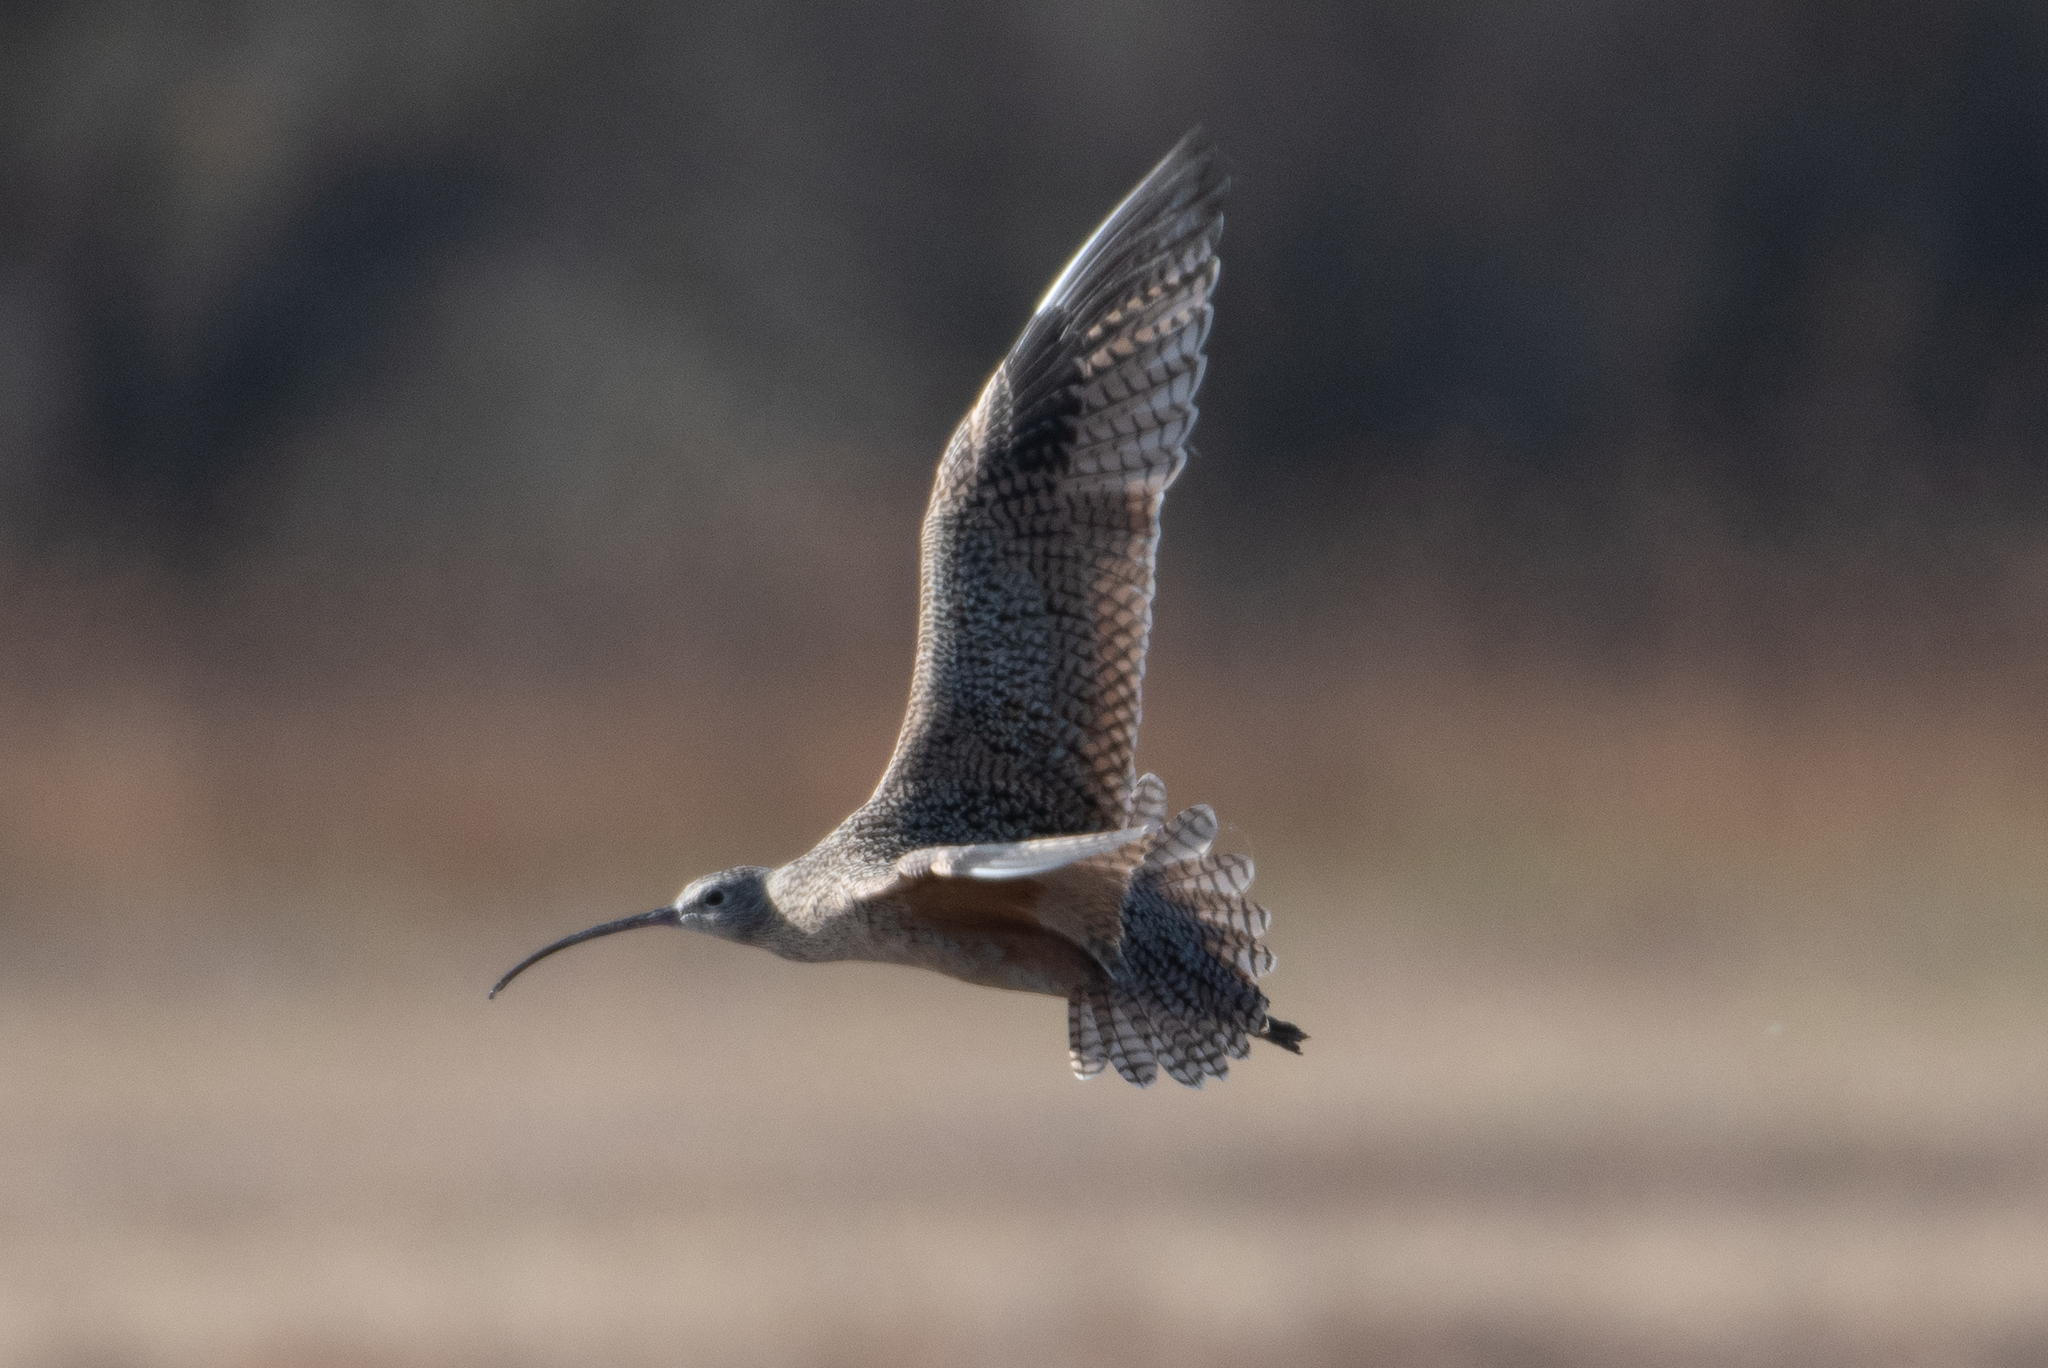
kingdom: Animalia
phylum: Chordata
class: Aves
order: Charadriiformes
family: Scolopacidae
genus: Numenius
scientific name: Numenius americanus
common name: Long-billed curlew
